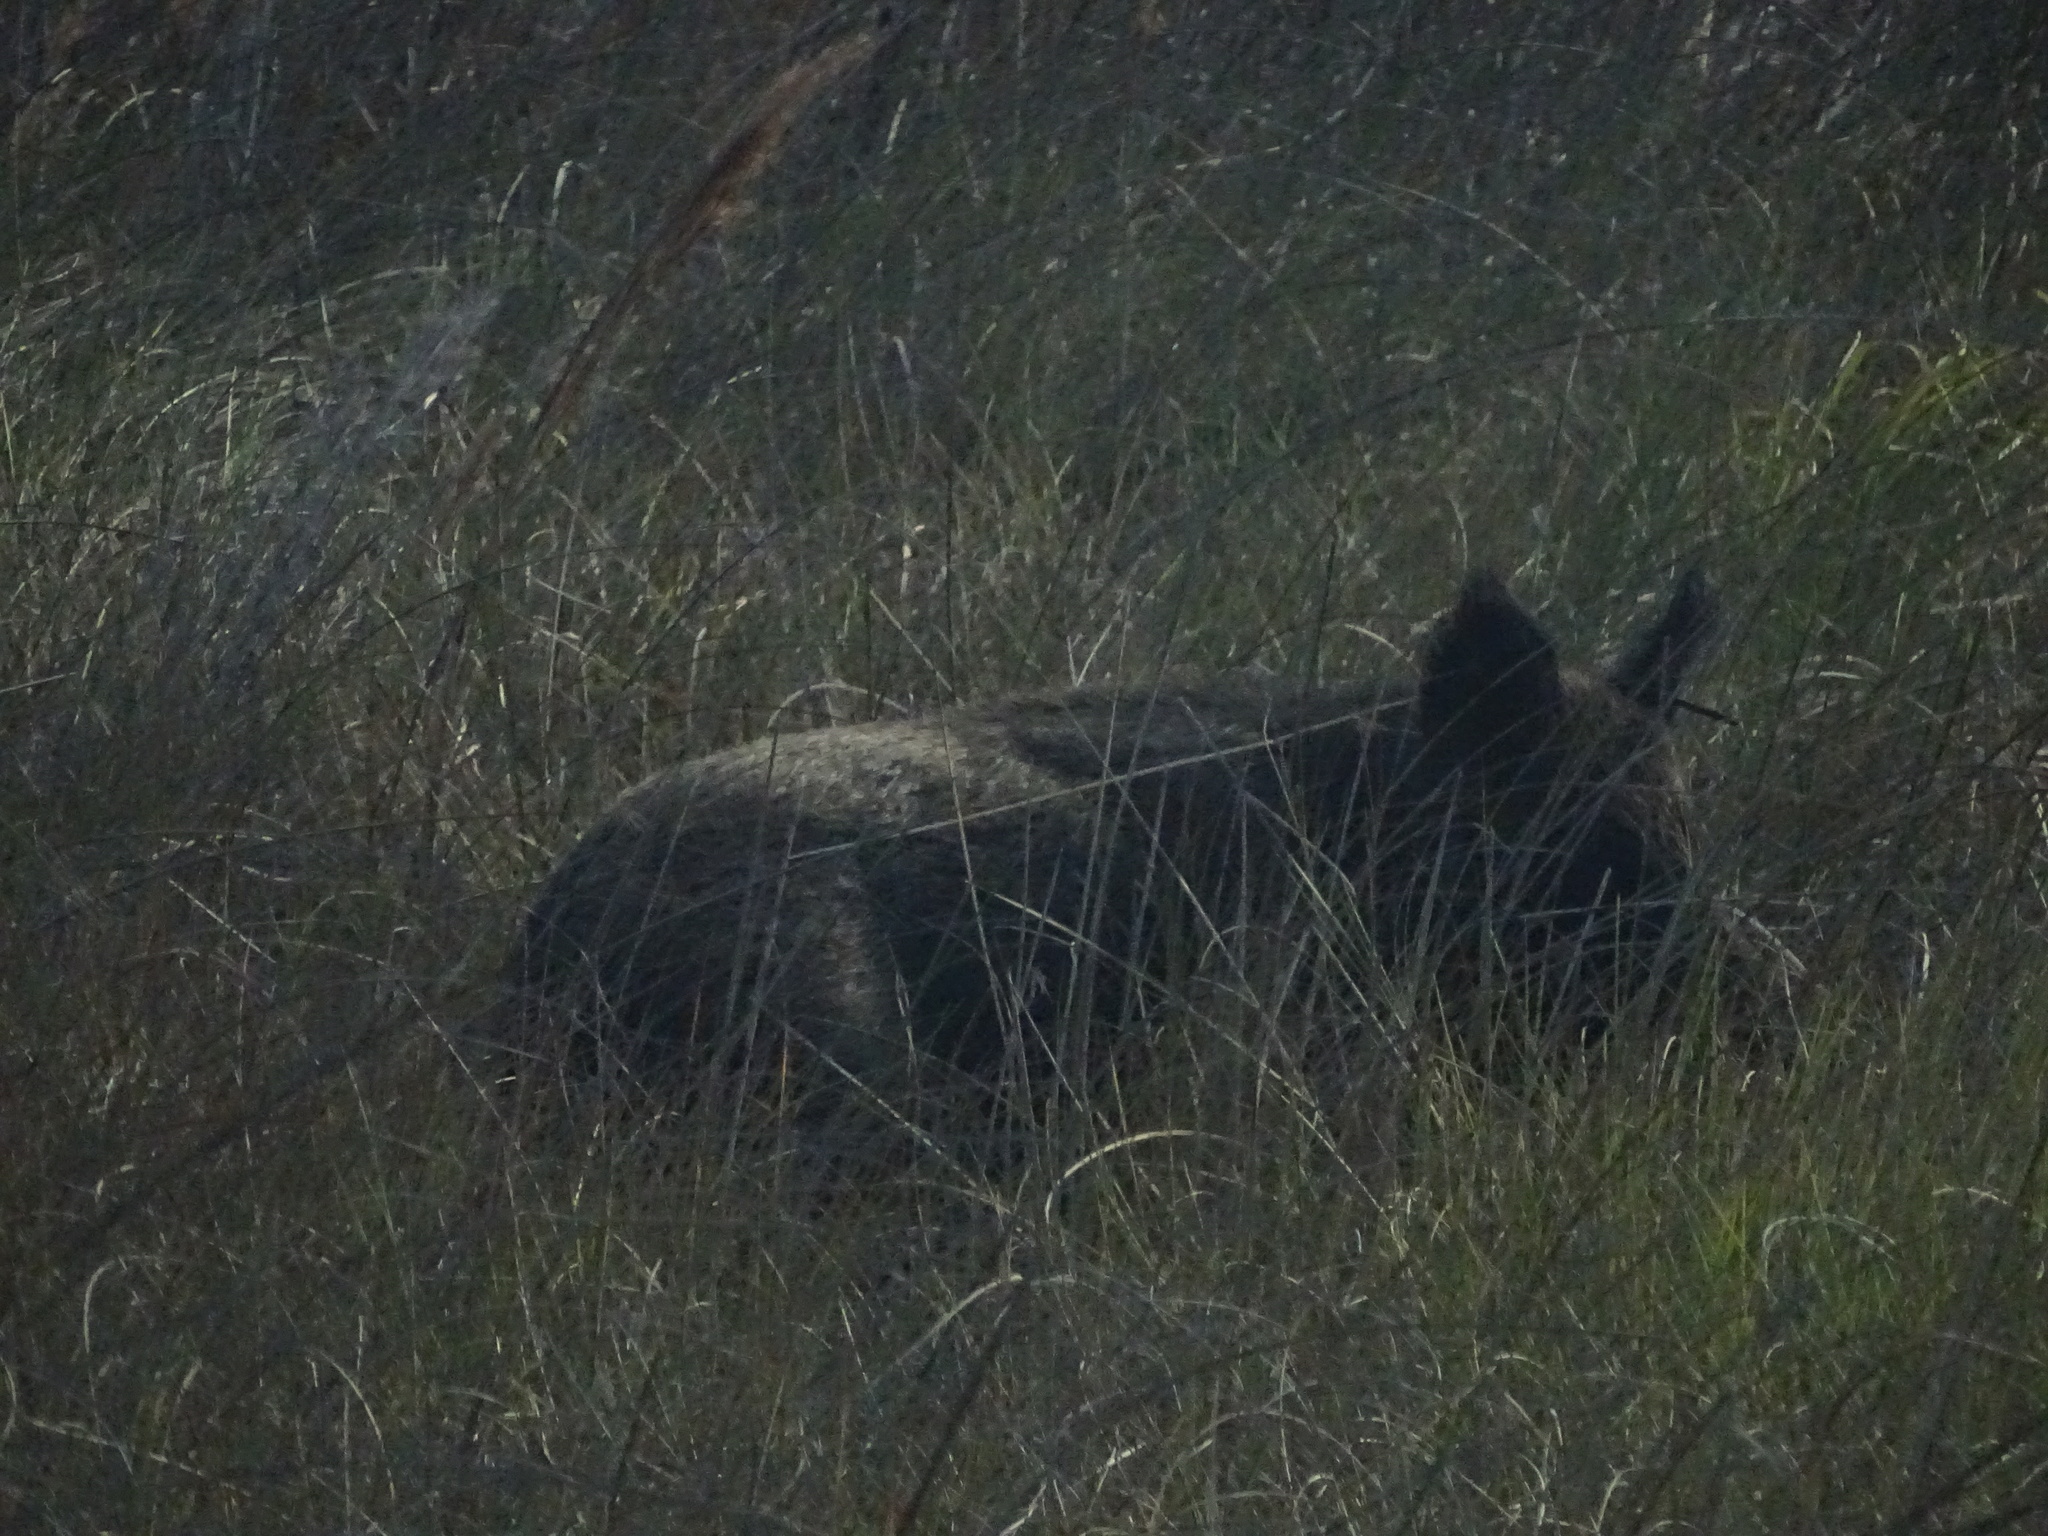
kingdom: Animalia
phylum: Chordata
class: Mammalia
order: Artiodactyla
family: Suidae
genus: Sus
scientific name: Sus scrofa
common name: Wild boar
